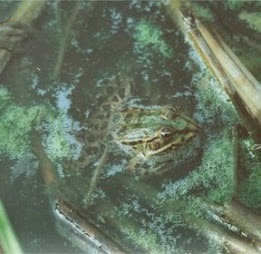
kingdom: Animalia
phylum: Chordata
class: Amphibia
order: Anura
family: Ranidae
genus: Pelophylax
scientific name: Pelophylax ridibundus
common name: Marsh frog
